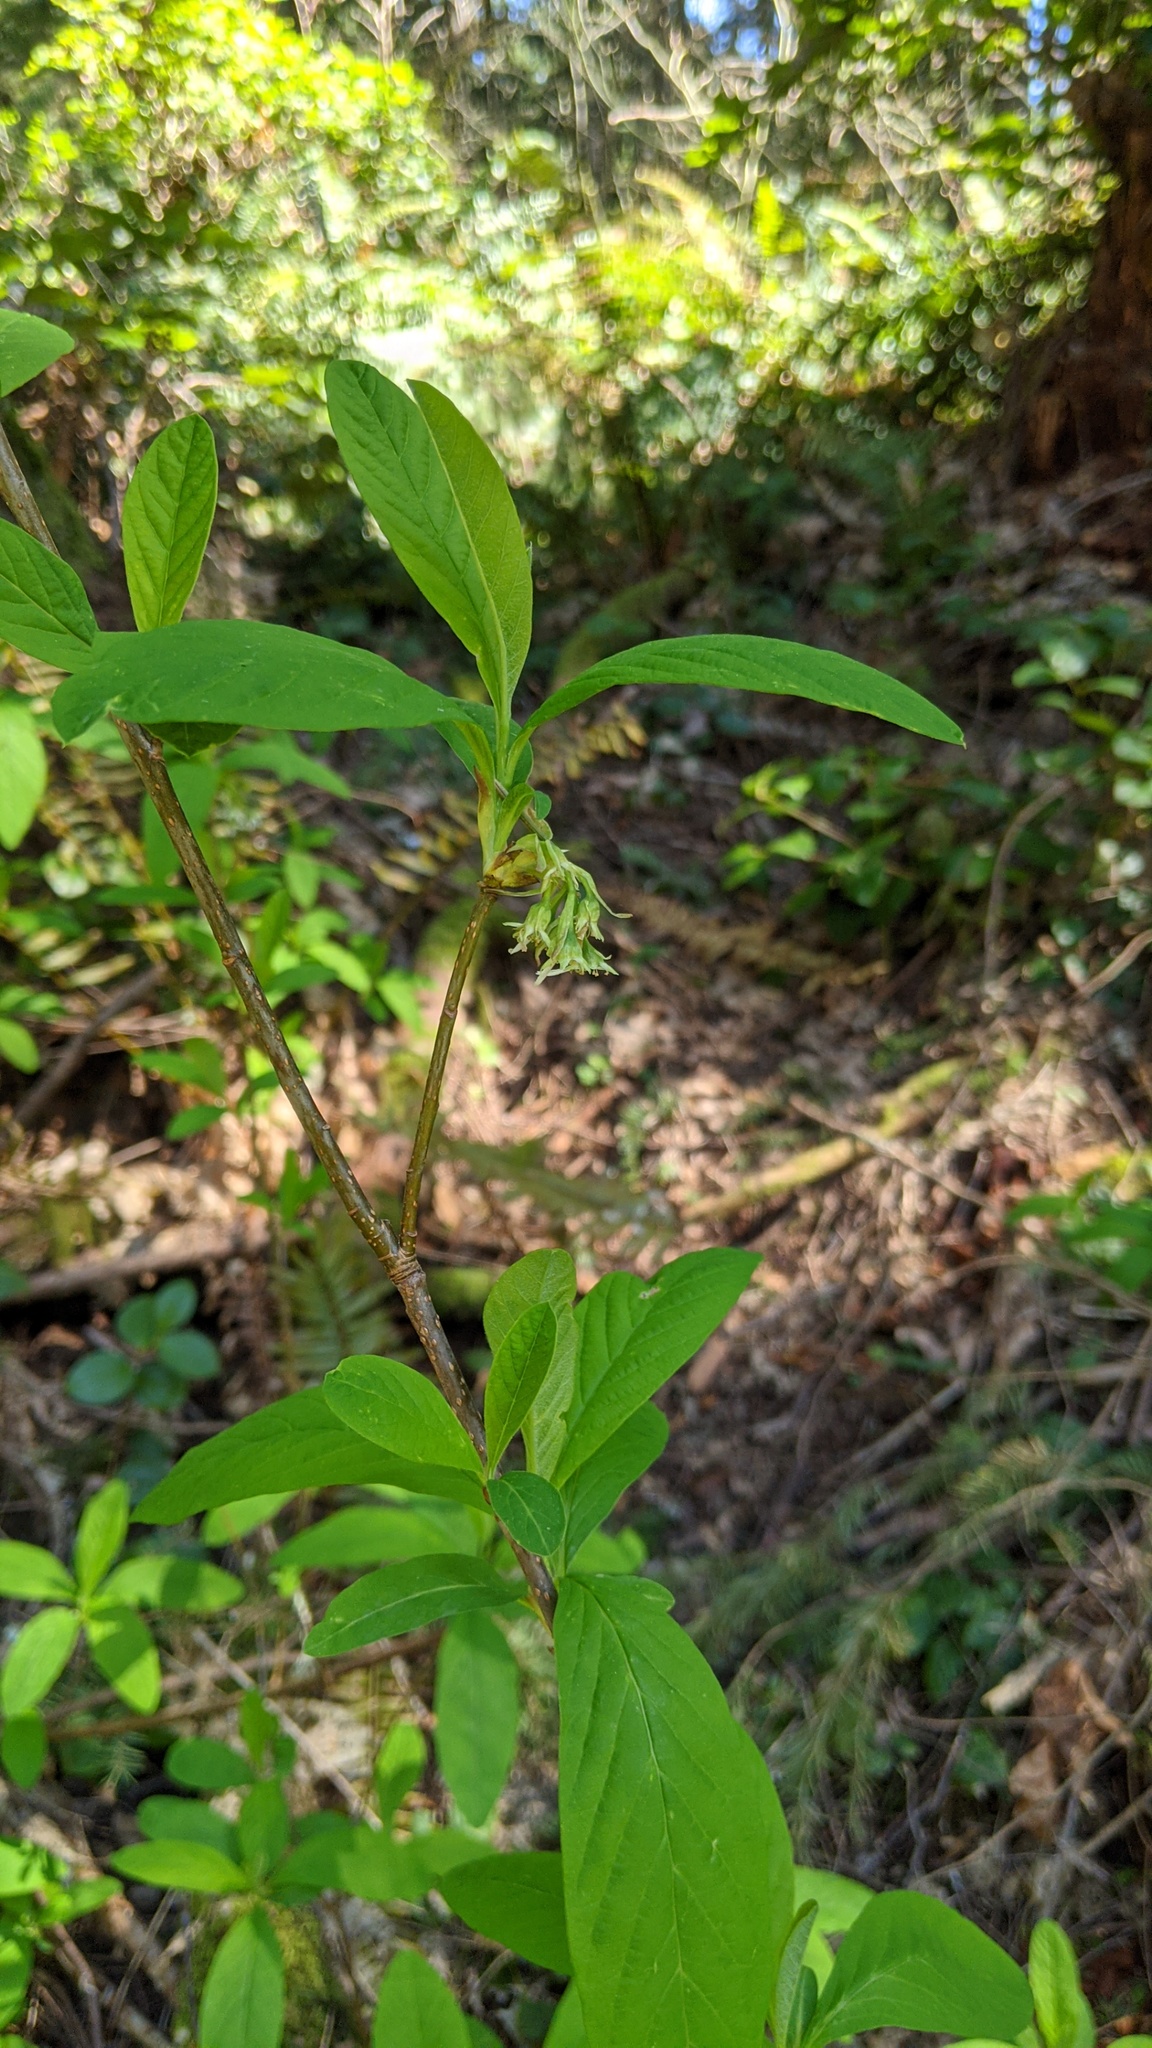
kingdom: Plantae
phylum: Tracheophyta
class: Magnoliopsida
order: Rosales
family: Rosaceae
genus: Oemleria
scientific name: Oemleria cerasiformis
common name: Osoberry
